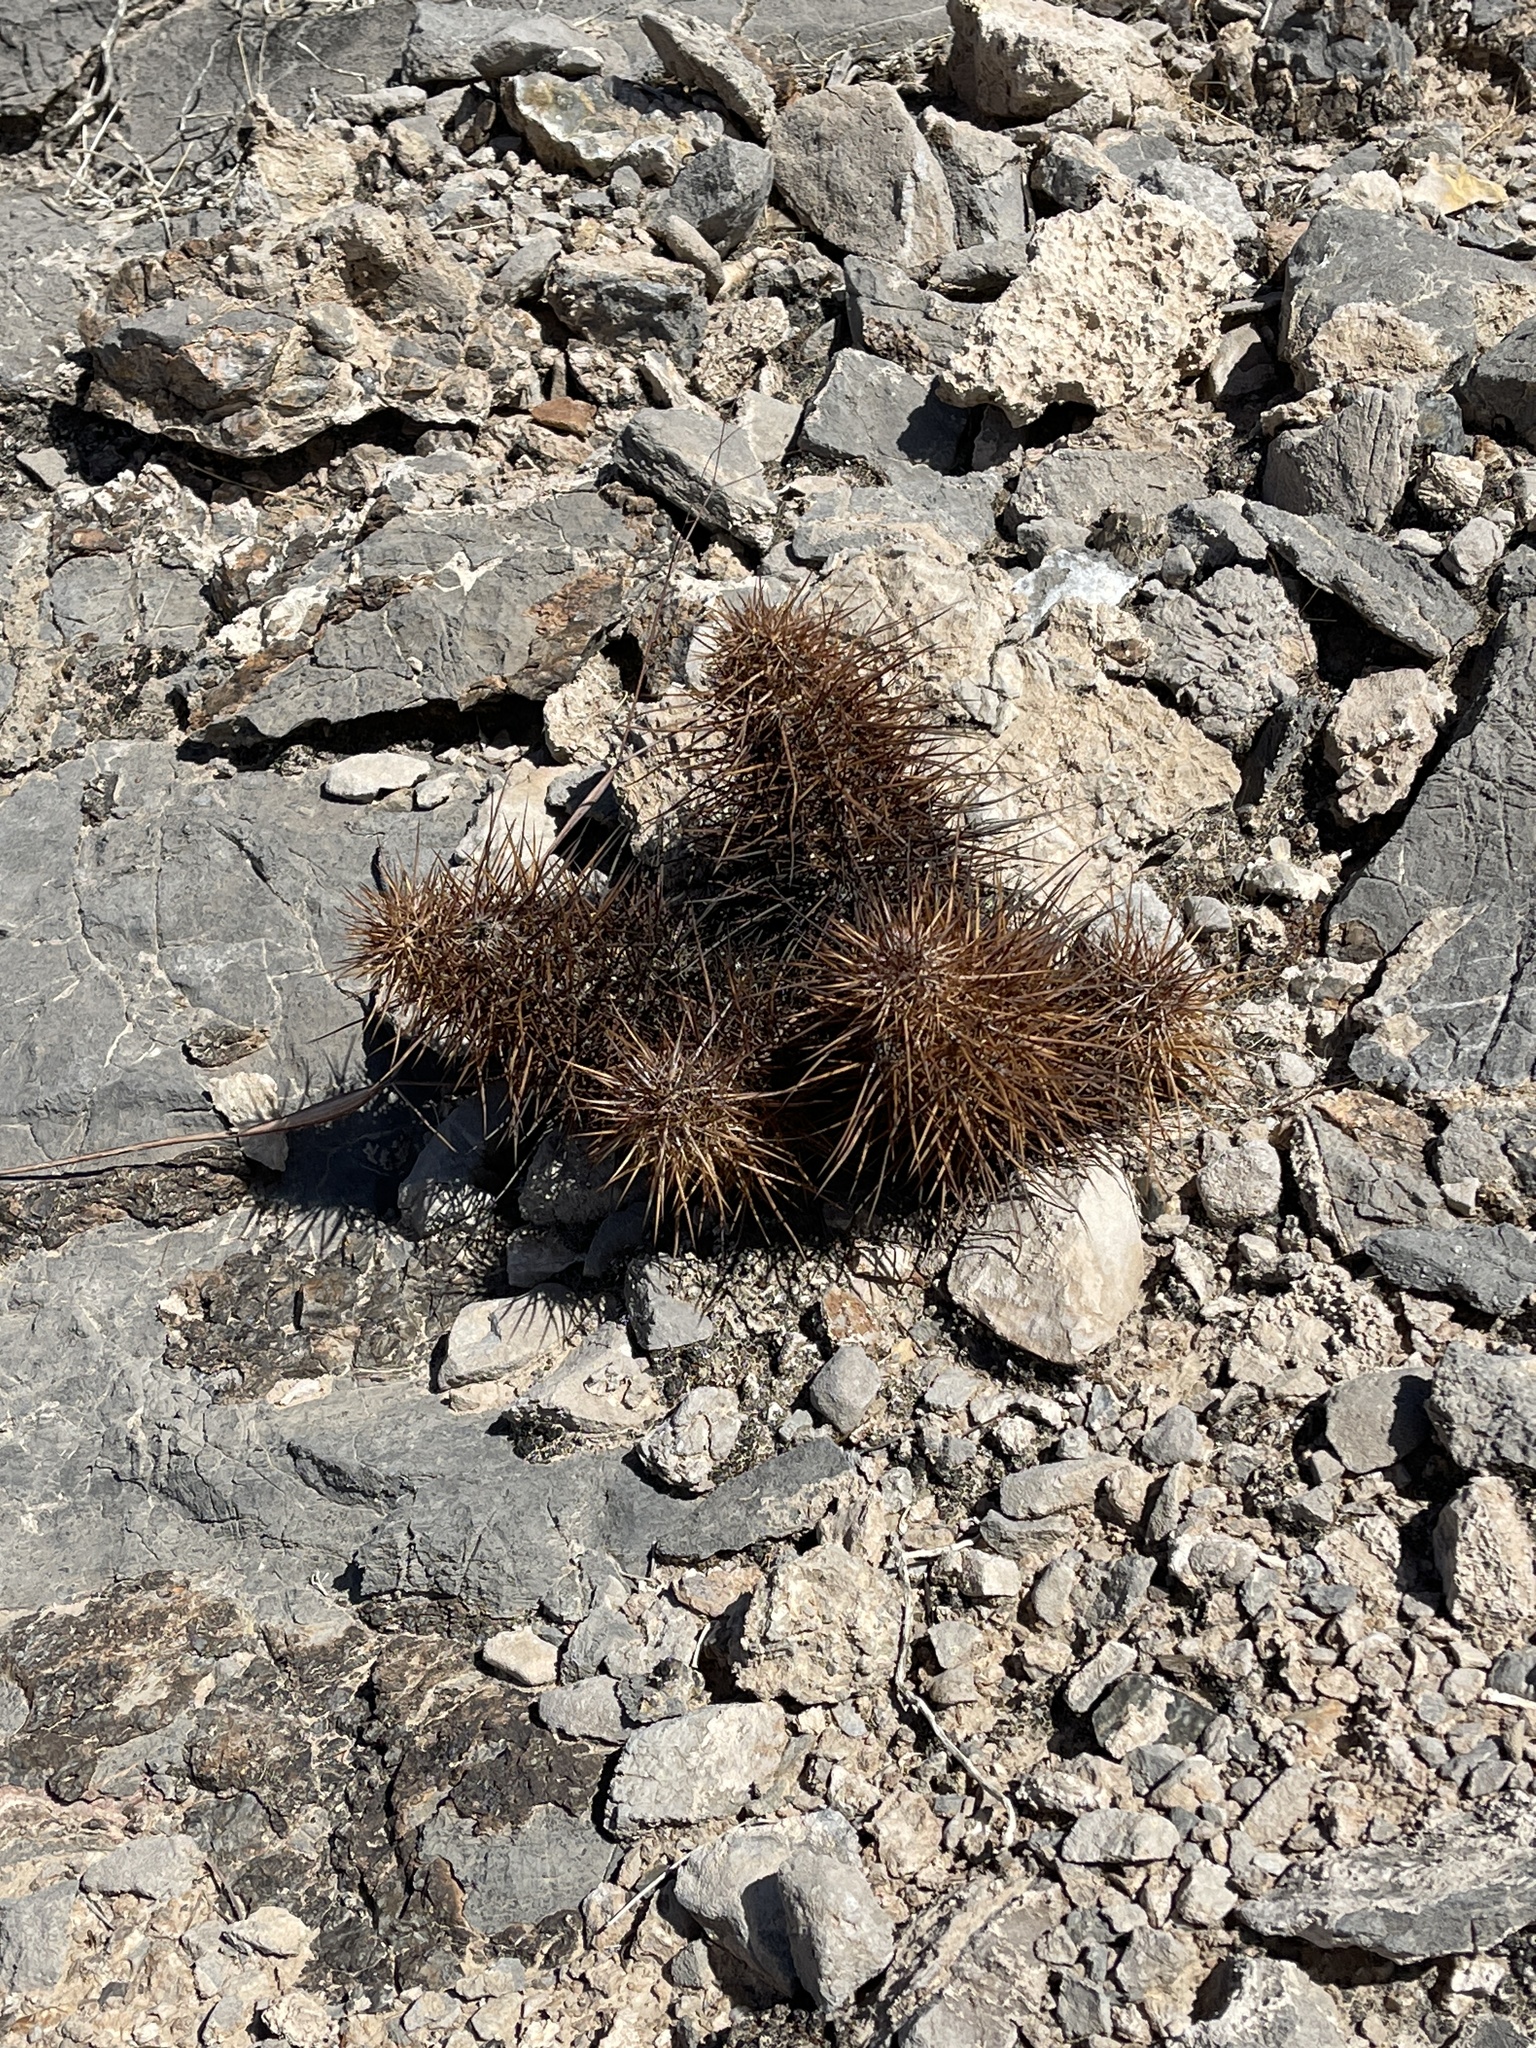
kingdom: Plantae
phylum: Tracheophyta
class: Magnoliopsida
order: Caryophyllales
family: Cactaceae
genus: Echinocereus
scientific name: Echinocereus engelmannii
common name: Engelmann's hedgehog cactus
